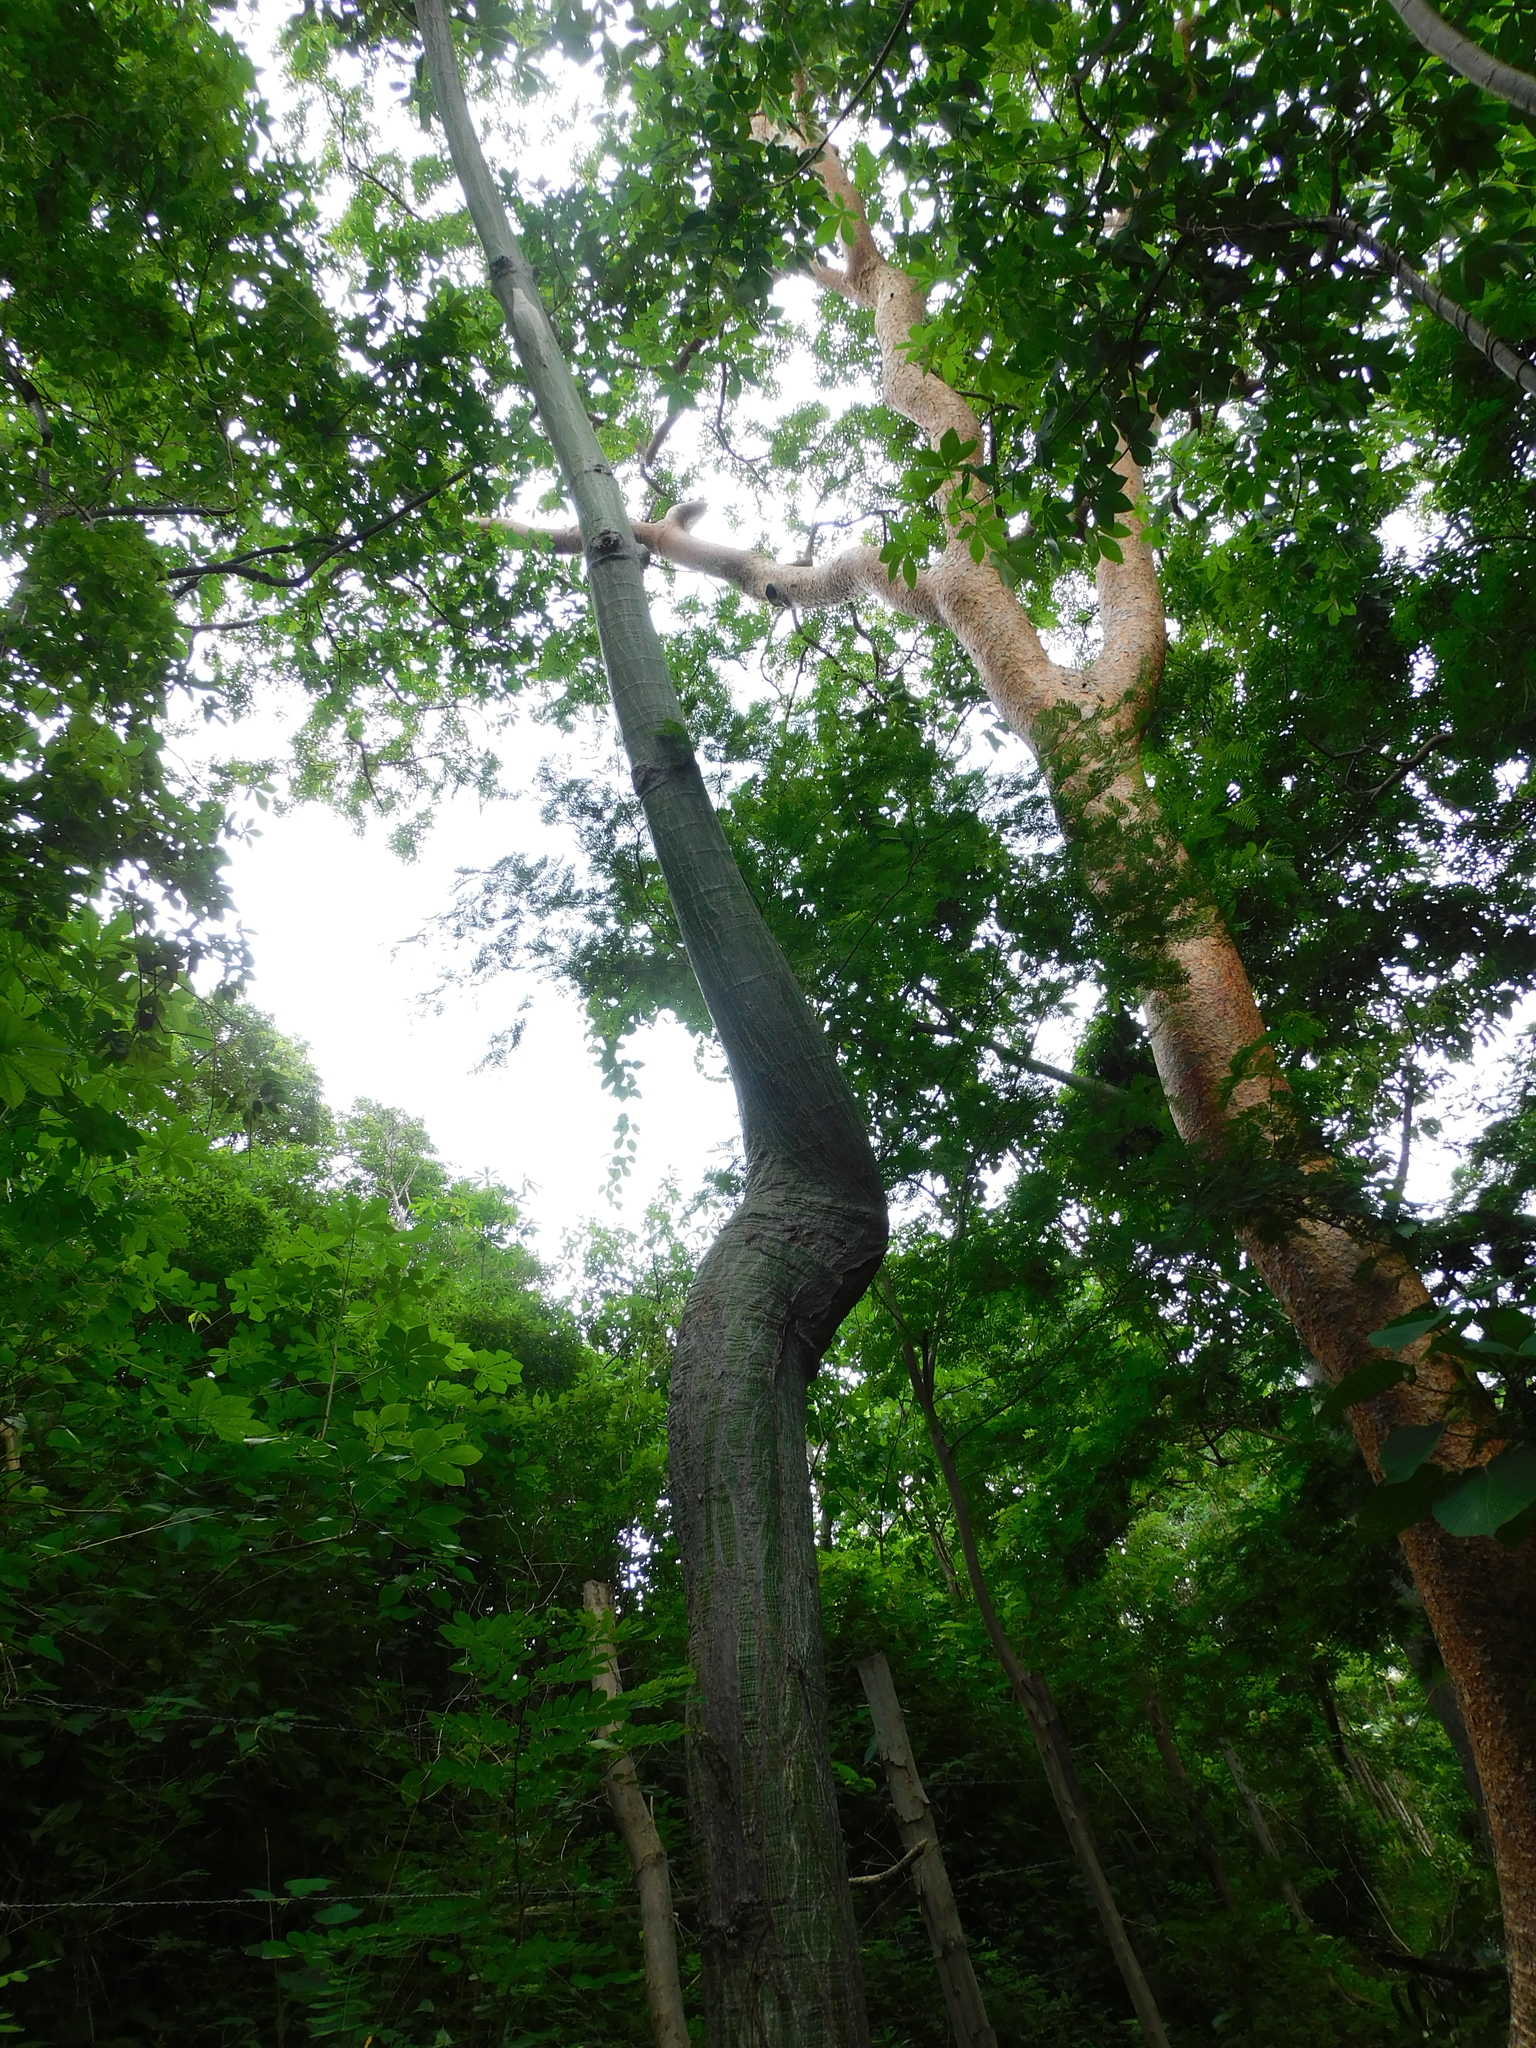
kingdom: Plantae
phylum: Tracheophyta
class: Magnoliopsida
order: Malvales
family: Malvaceae
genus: Pseudobombax
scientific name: Pseudobombax septenatum
